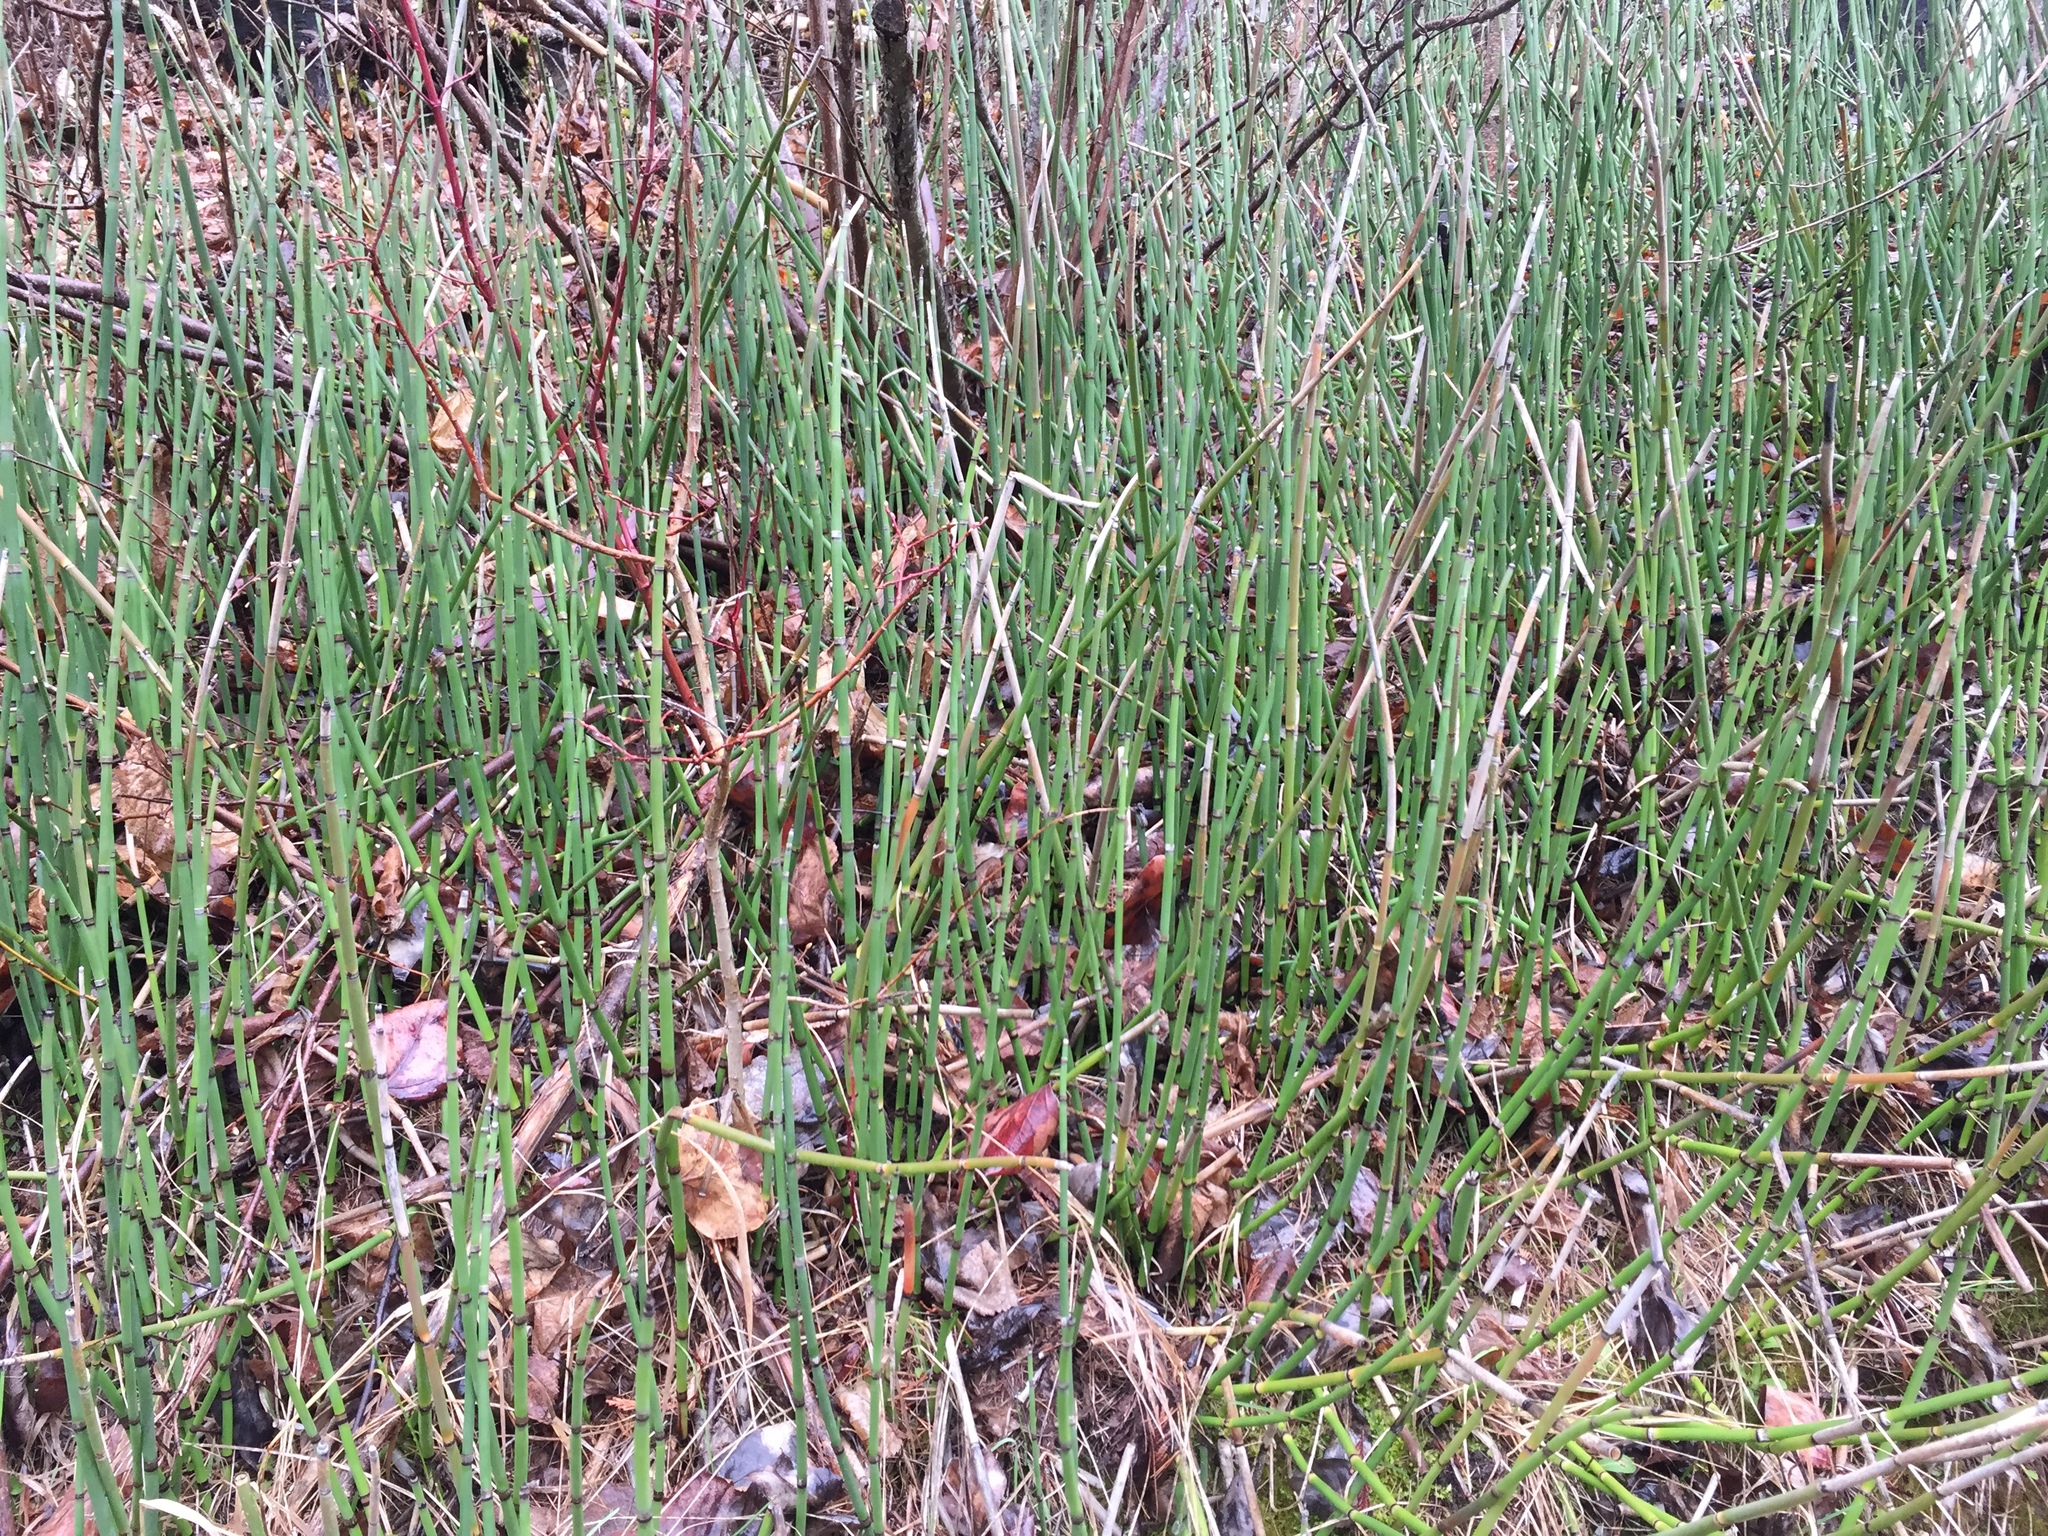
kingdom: Plantae
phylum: Tracheophyta
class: Polypodiopsida
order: Equisetales
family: Equisetaceae
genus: Equisetum
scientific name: Equisetum hyemale
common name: Rough horsetail
